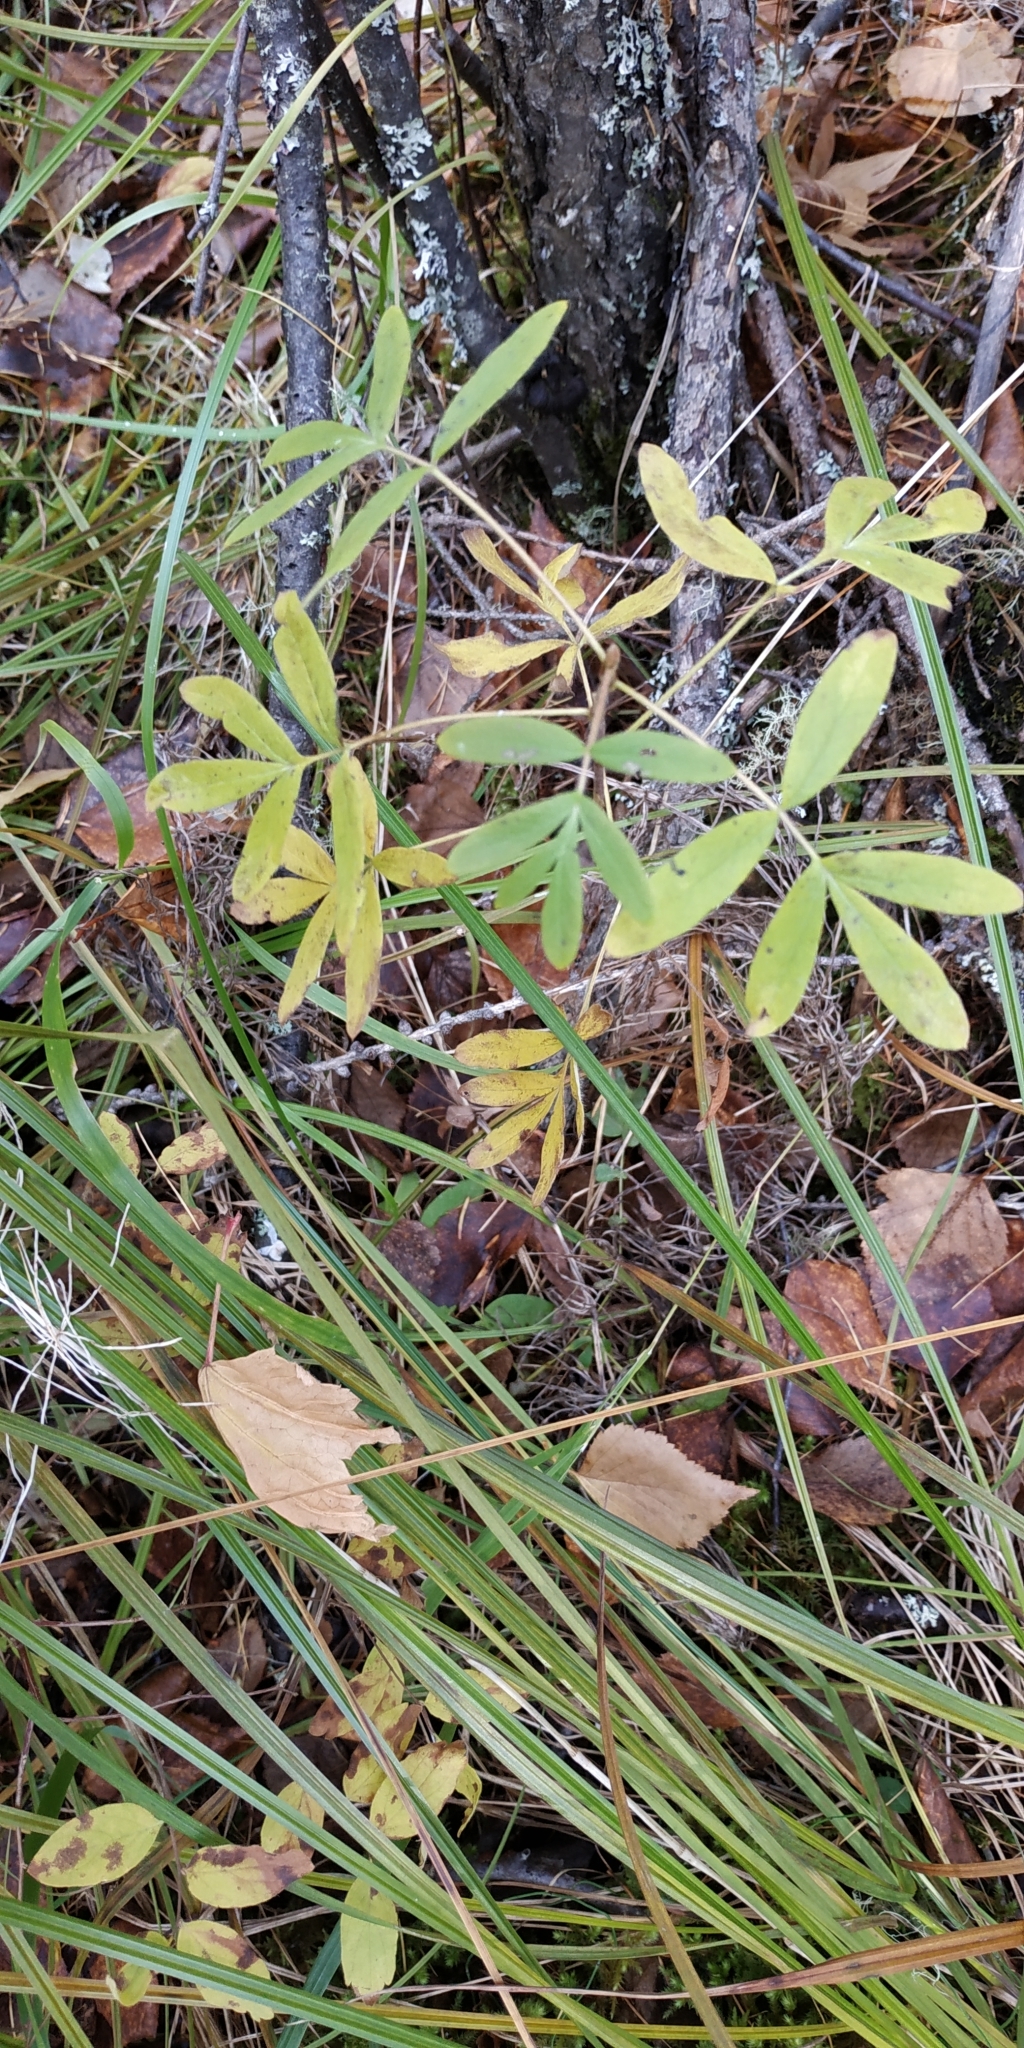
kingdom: Plantae
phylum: Tracheophyta
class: Magnoliopsida
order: Rosales
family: Rosaceae
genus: Dasiphora
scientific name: Dasiphora fruticosa
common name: Shrubby cinquefoil
